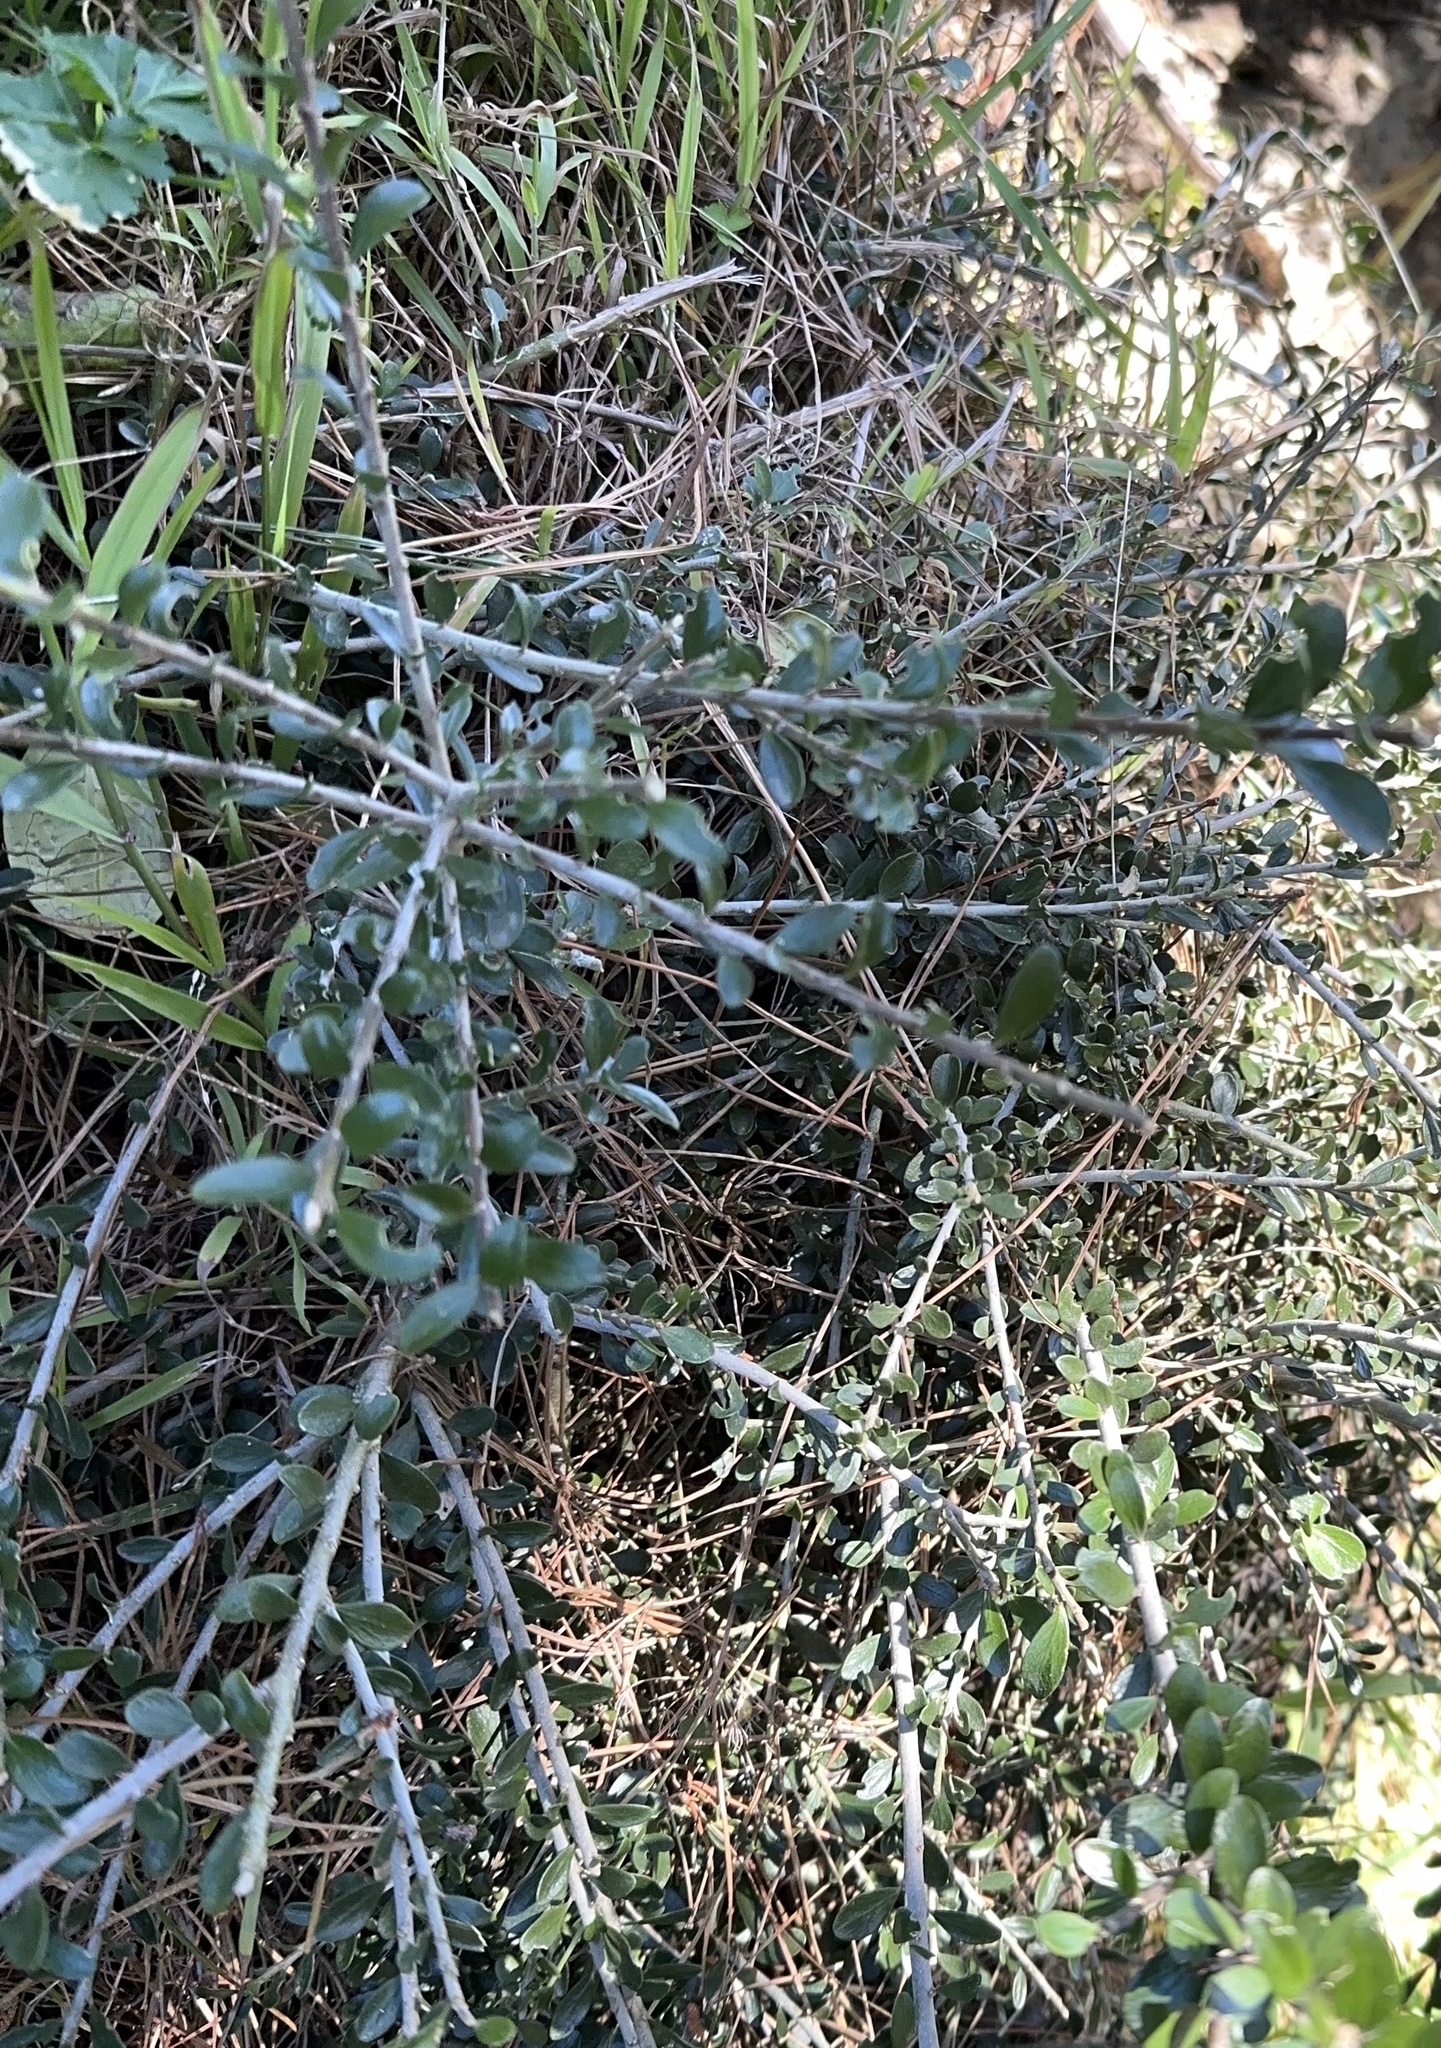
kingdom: Plantae
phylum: Tracheophyta
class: Magnoliopsida
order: Malpighiales
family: Violaceae
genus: Melicytus
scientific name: Melicytus crassifolius
